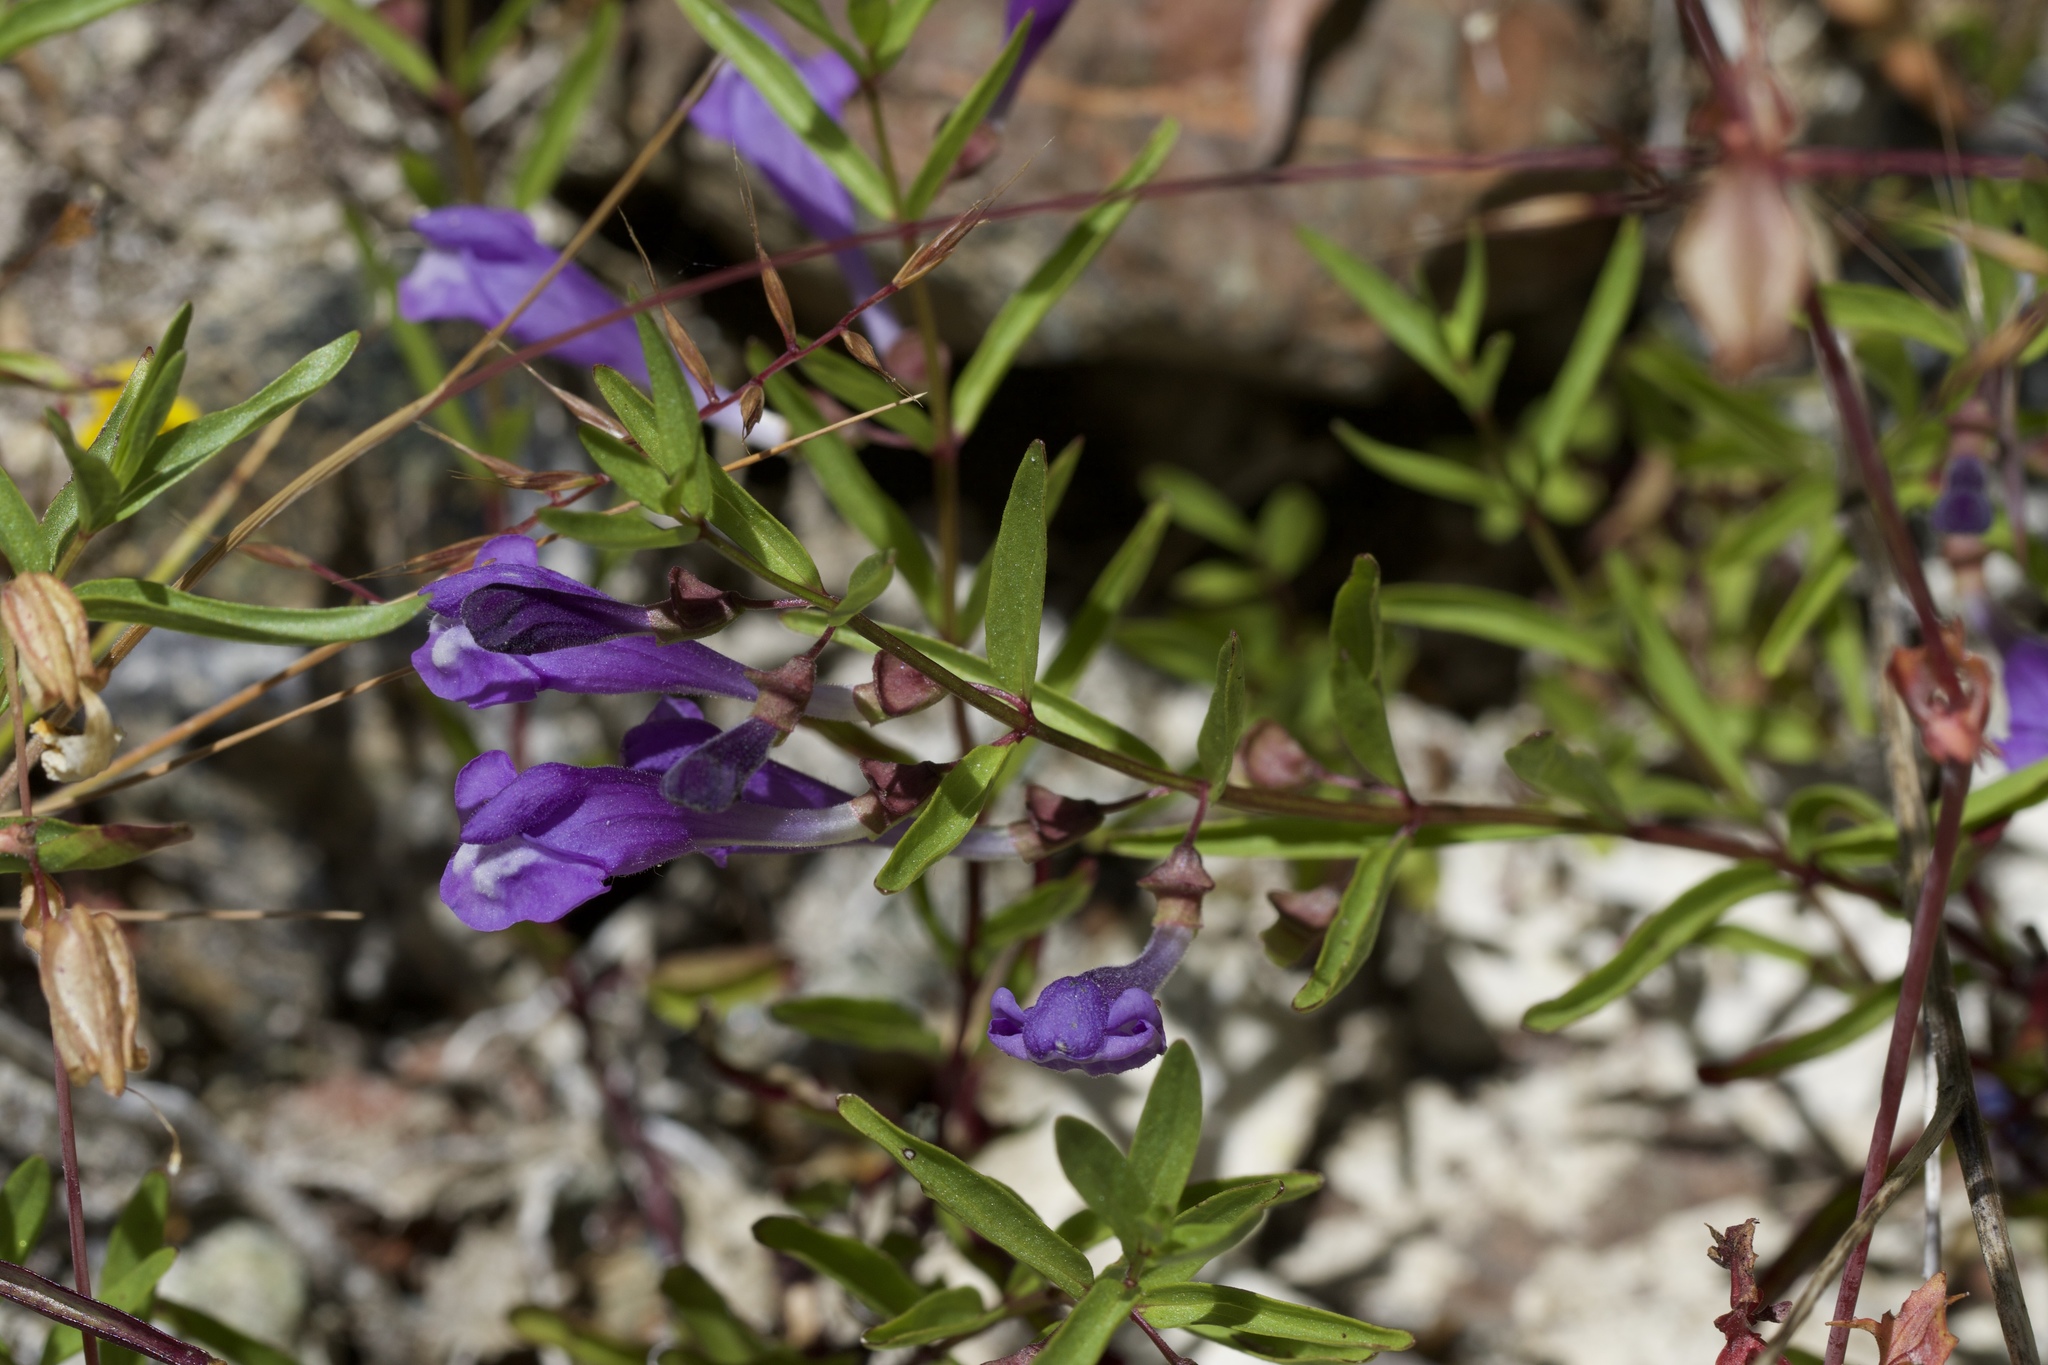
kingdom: Plantae
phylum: Tracheophyta
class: Magnoliopsida
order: Lamiales
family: Lamiaceae
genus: Scutellaria
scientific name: Scutellaria siphocampyloides
